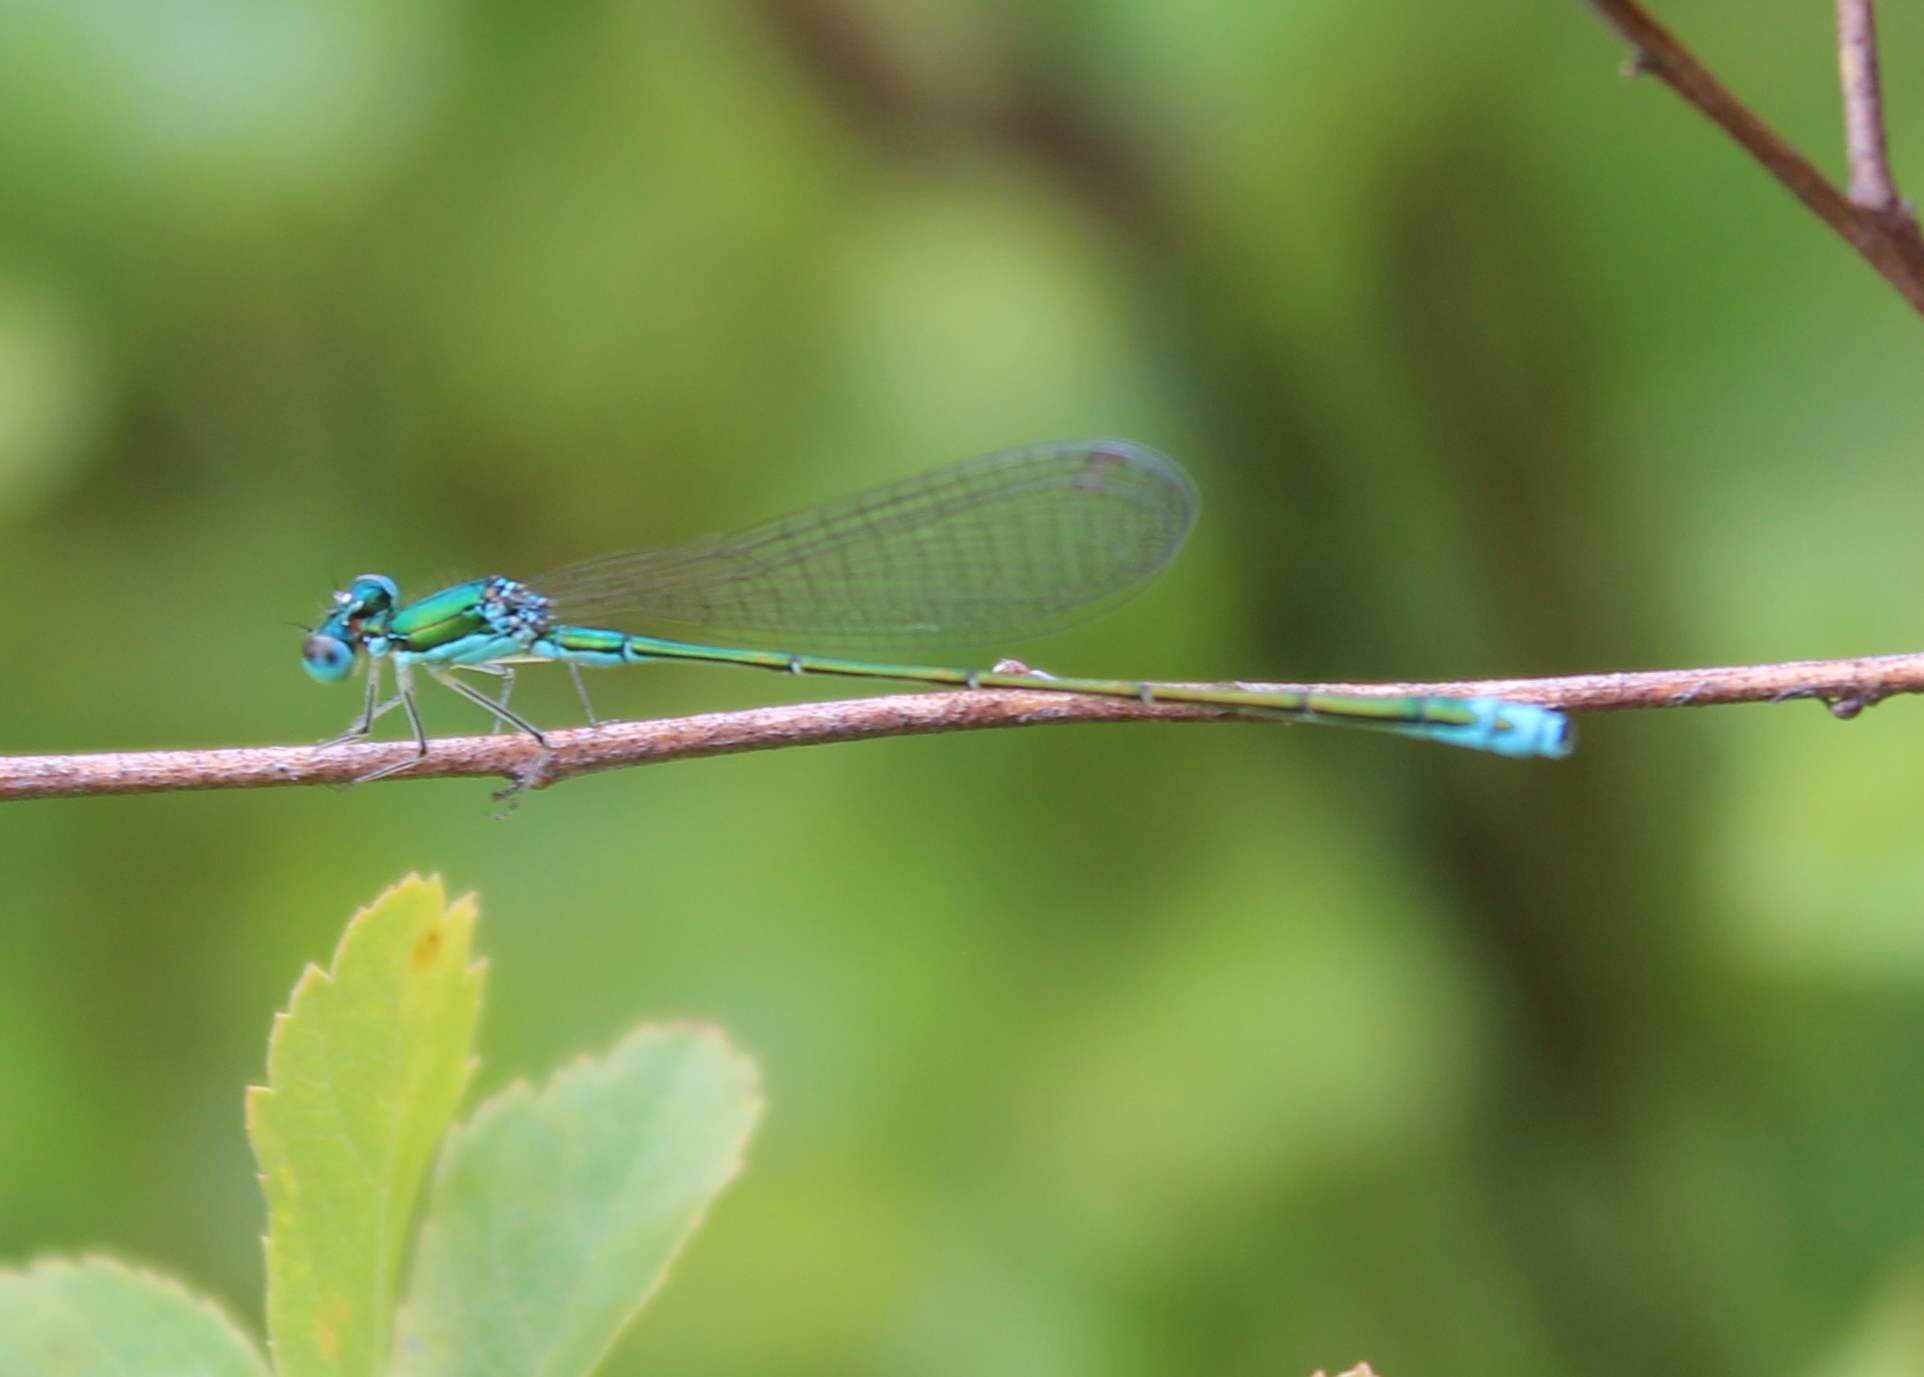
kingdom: Animalia
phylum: Arthropoda
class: Insecta
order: Odonata
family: Coenagrionidae
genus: Nehalennia
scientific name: Nehalennia irene
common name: Sedge sprite
